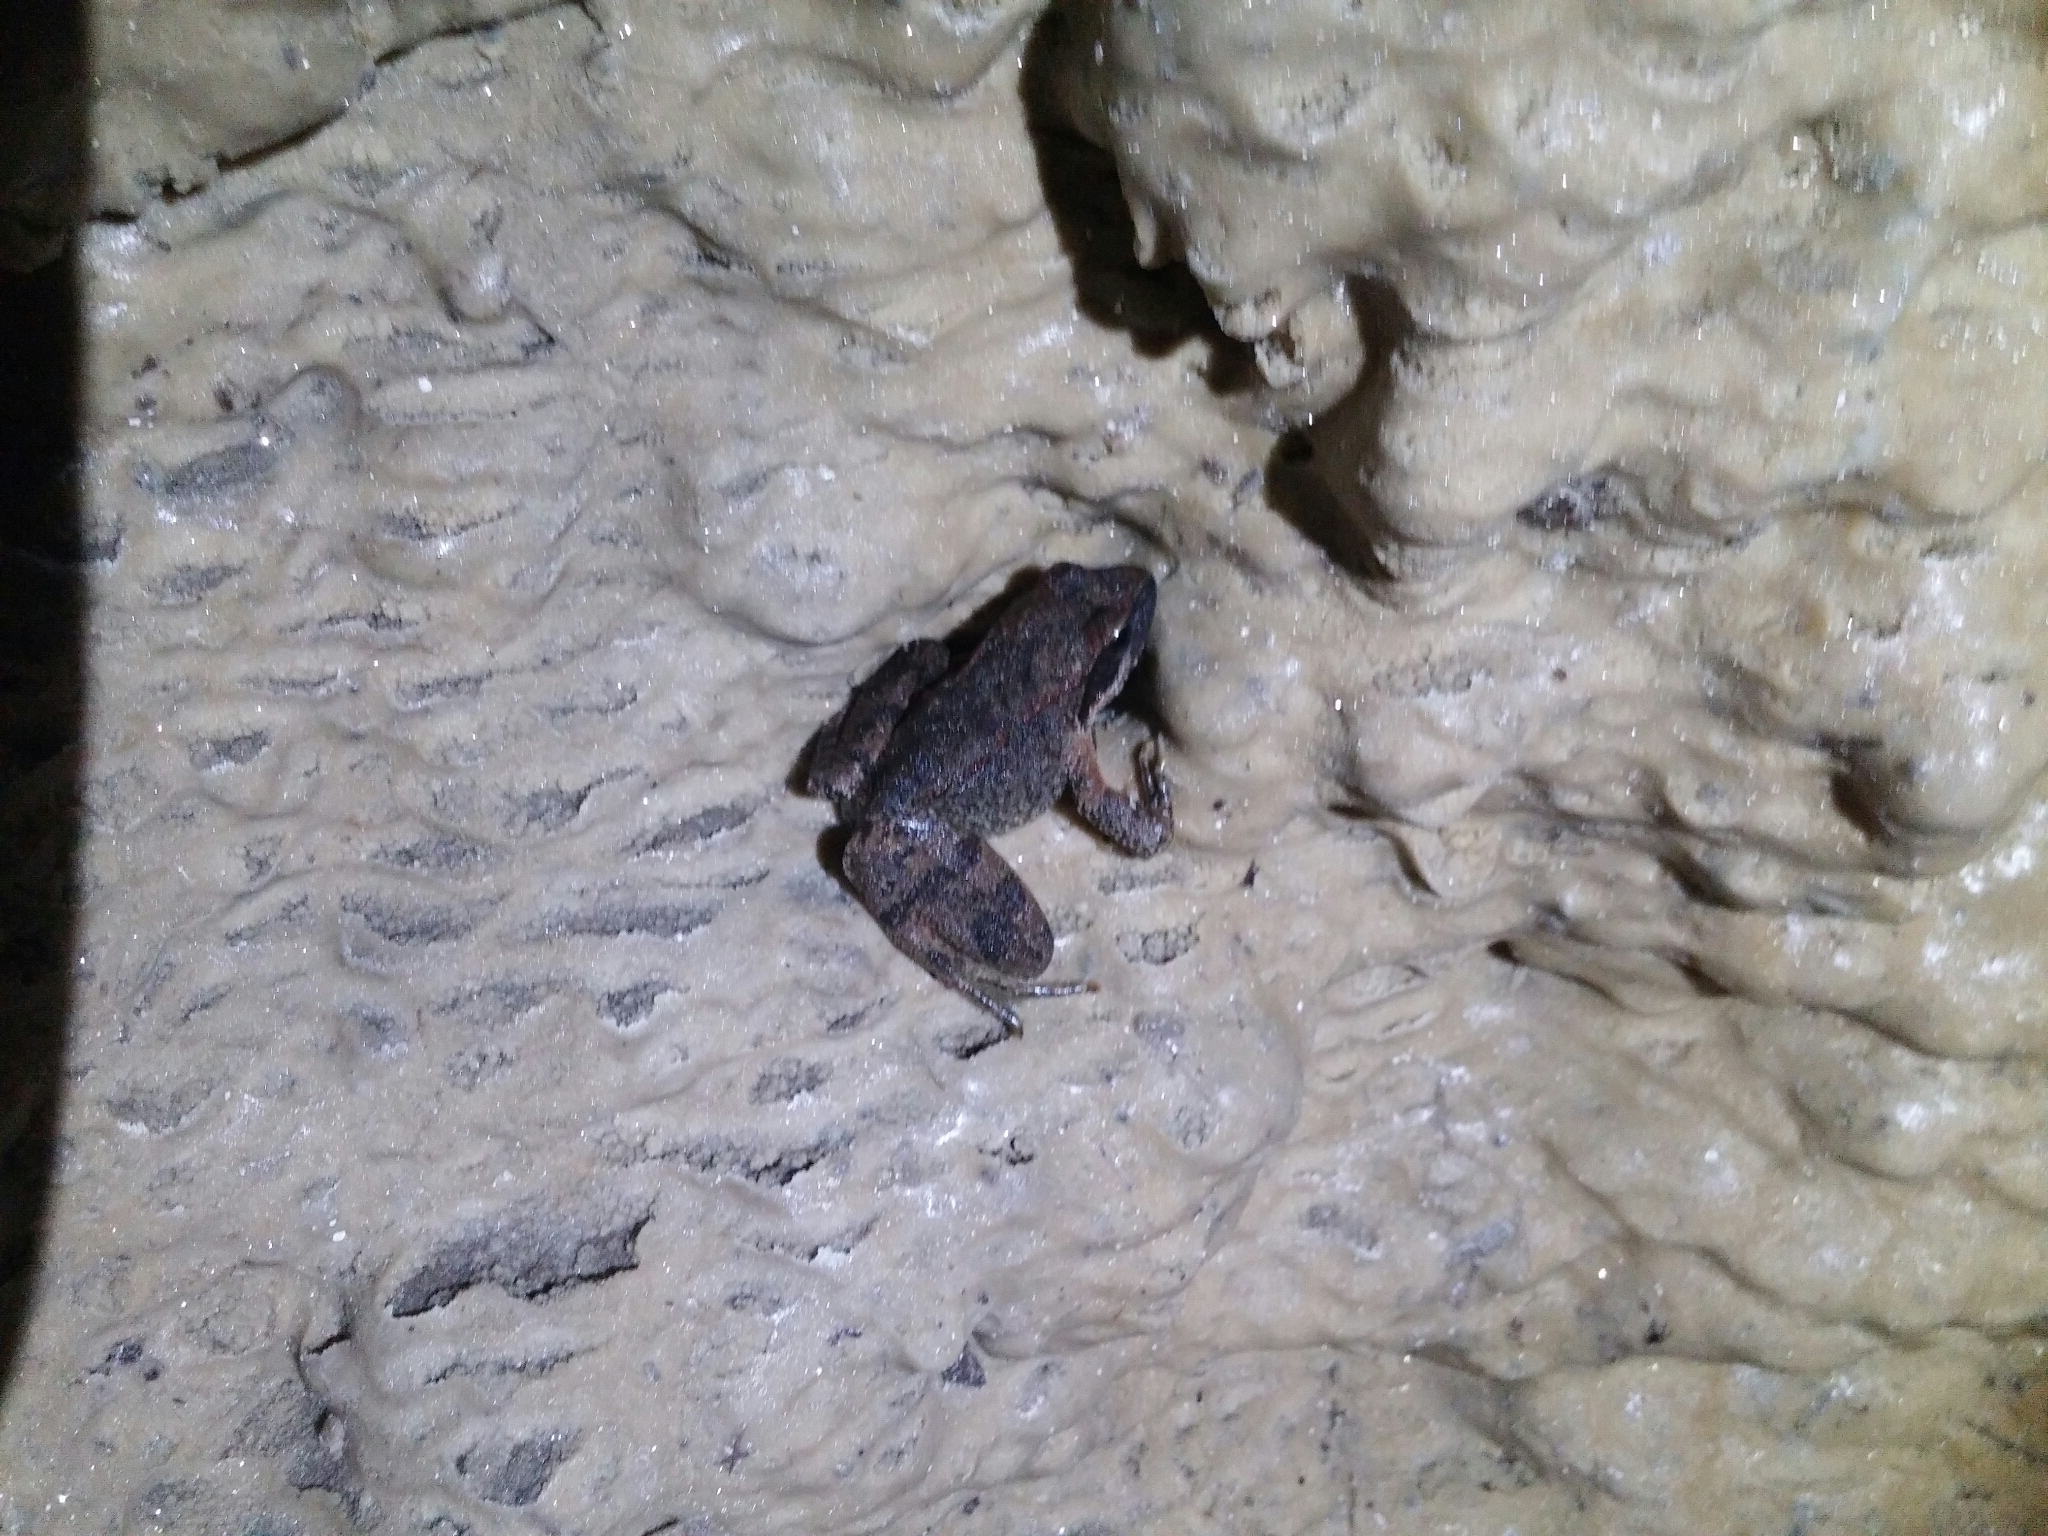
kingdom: Animalia
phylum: Chordata
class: Amphibia
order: Anura
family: Ranidae
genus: Rana
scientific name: Rana italica
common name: Italian stream frog
